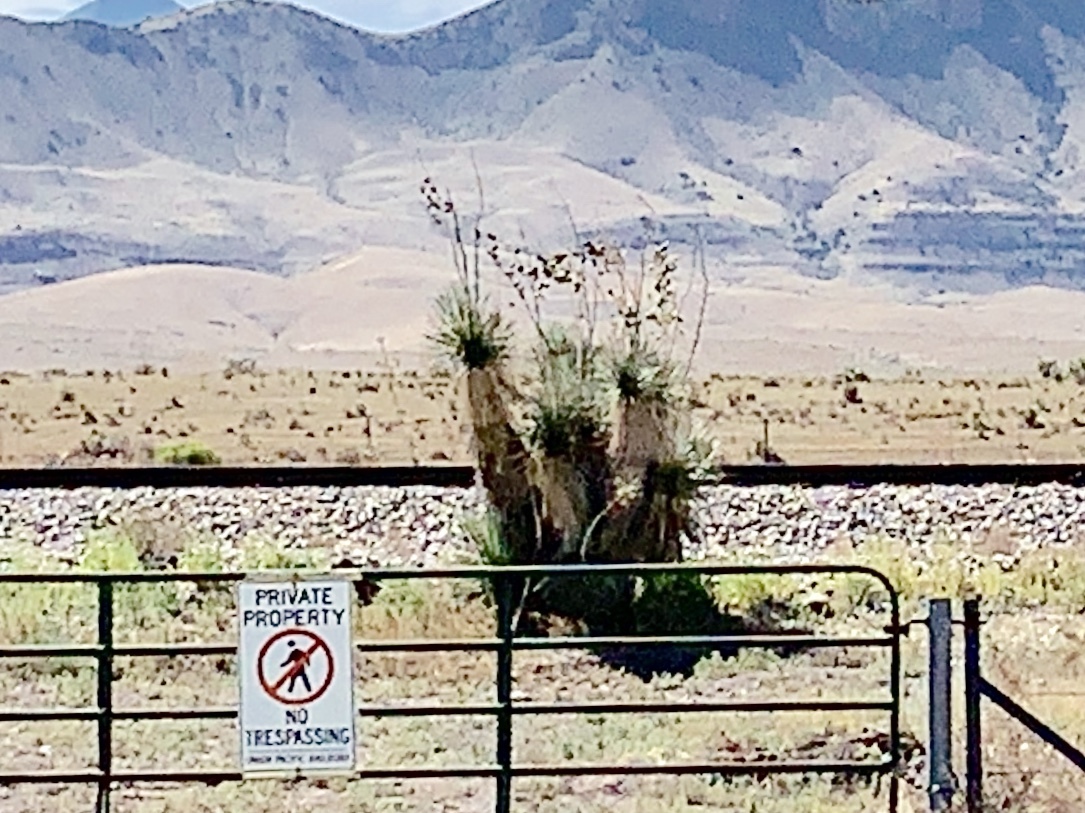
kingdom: Plantae
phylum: Tracheophyta
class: Liliopsida
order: Asparagales
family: Asparagaceae
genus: Yucca
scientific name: Yucca elata
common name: Palmella
